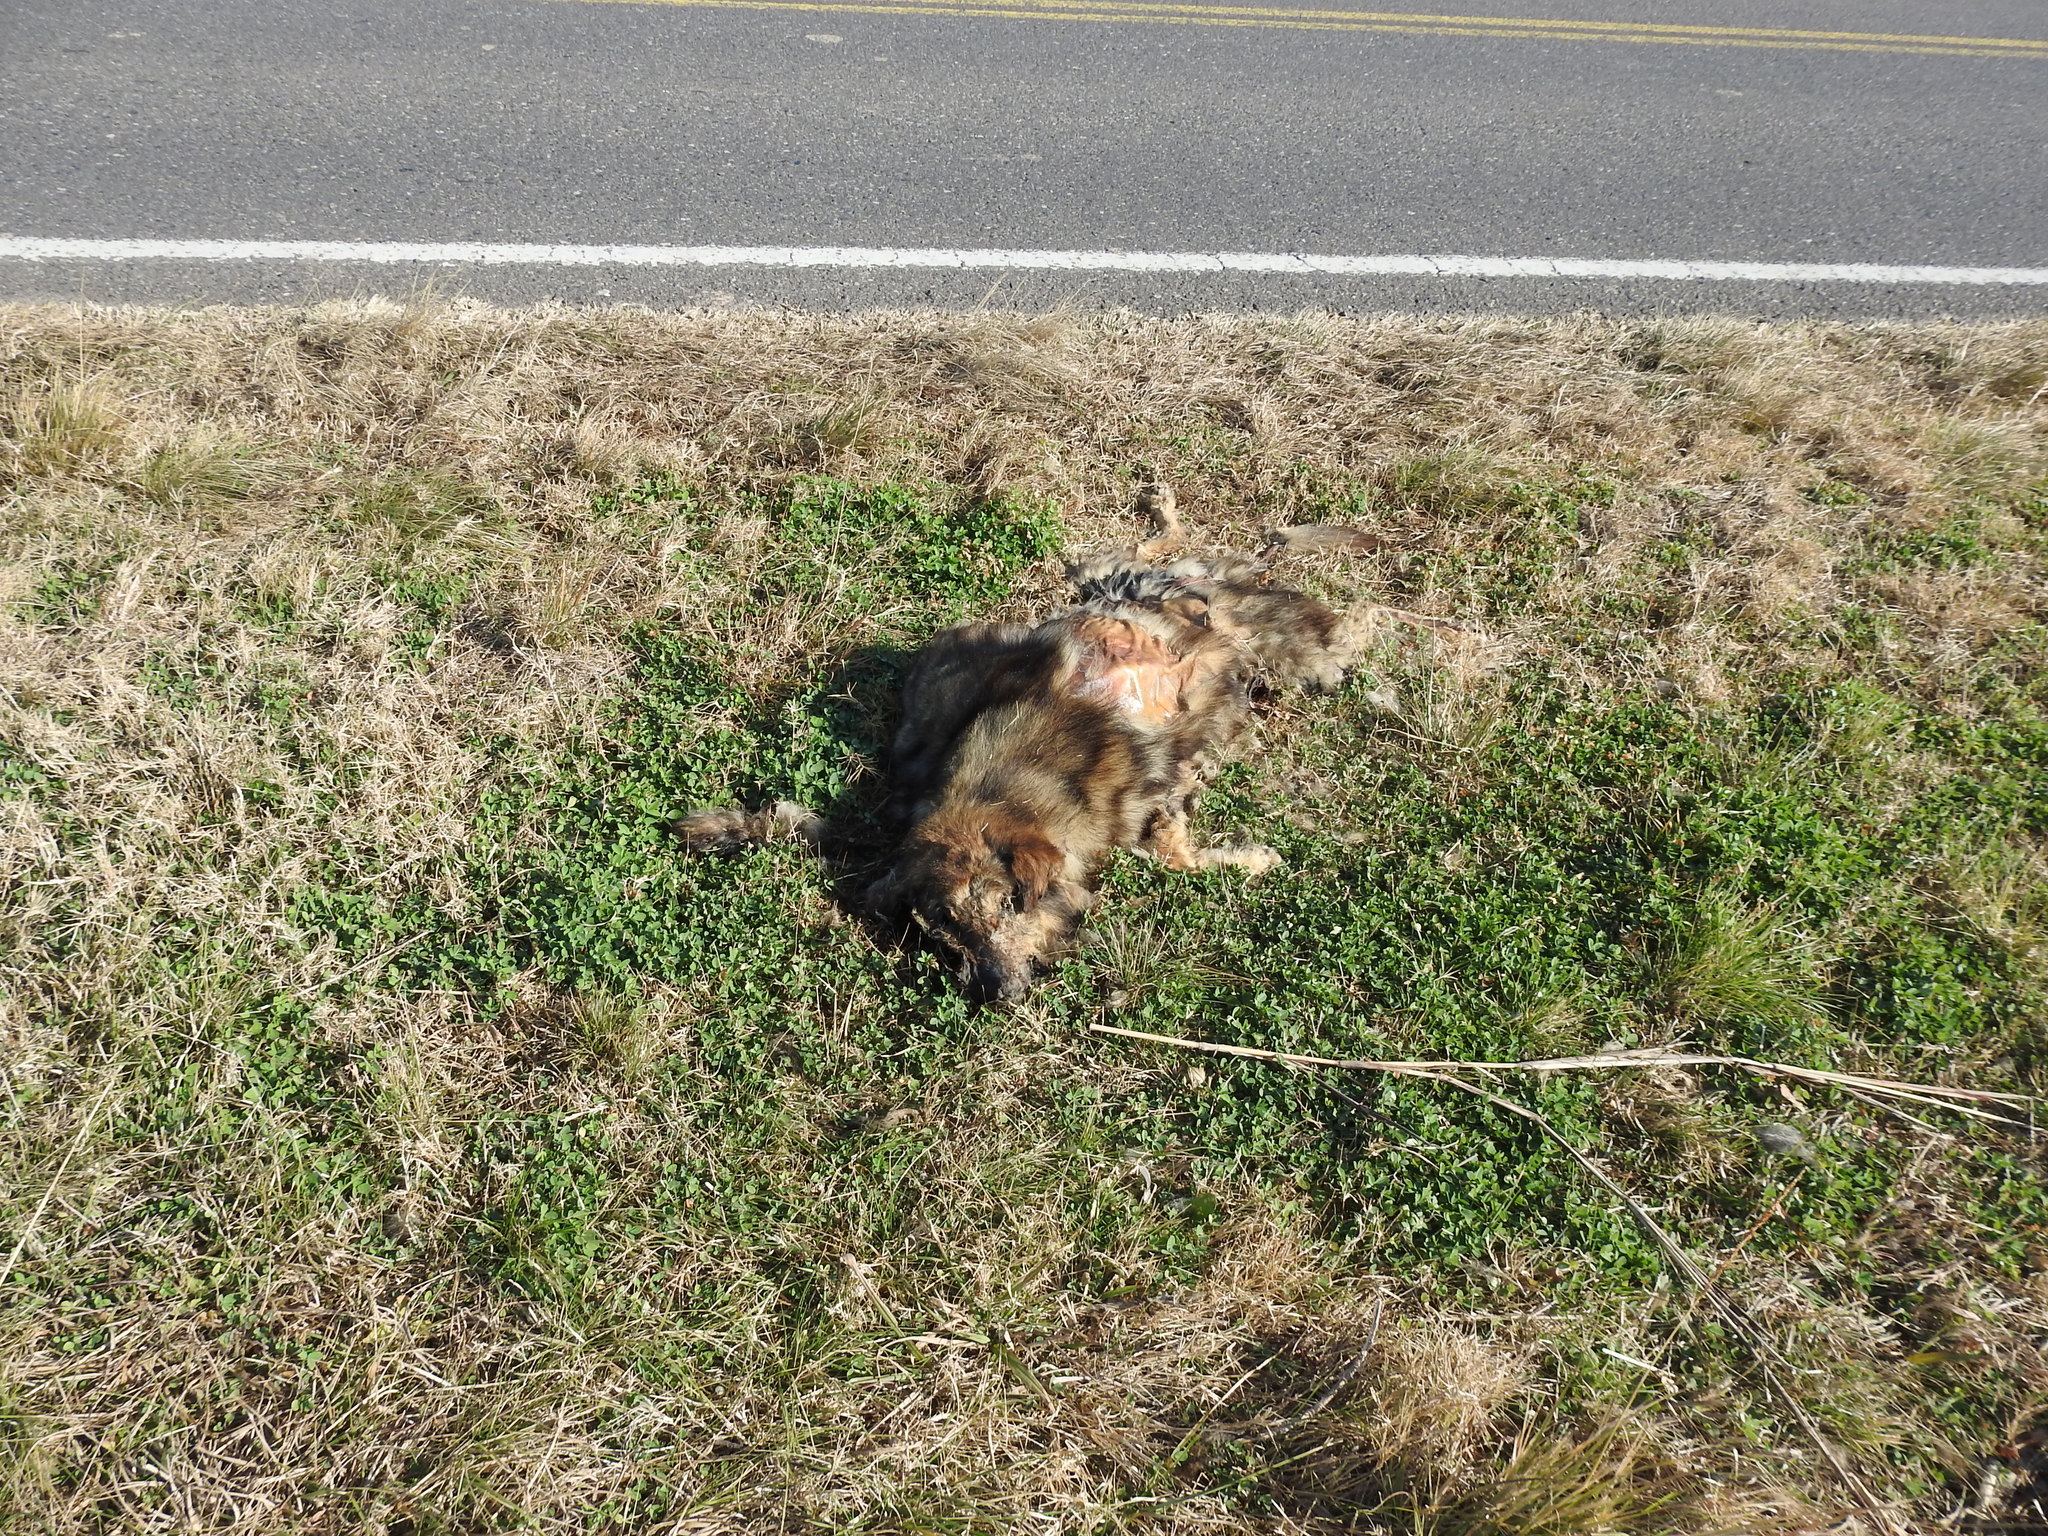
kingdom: Animalia
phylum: Chordata
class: Mammalia
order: Carnivora
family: Canidae
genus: Canis
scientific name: Canis lupus
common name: Gray wolf
